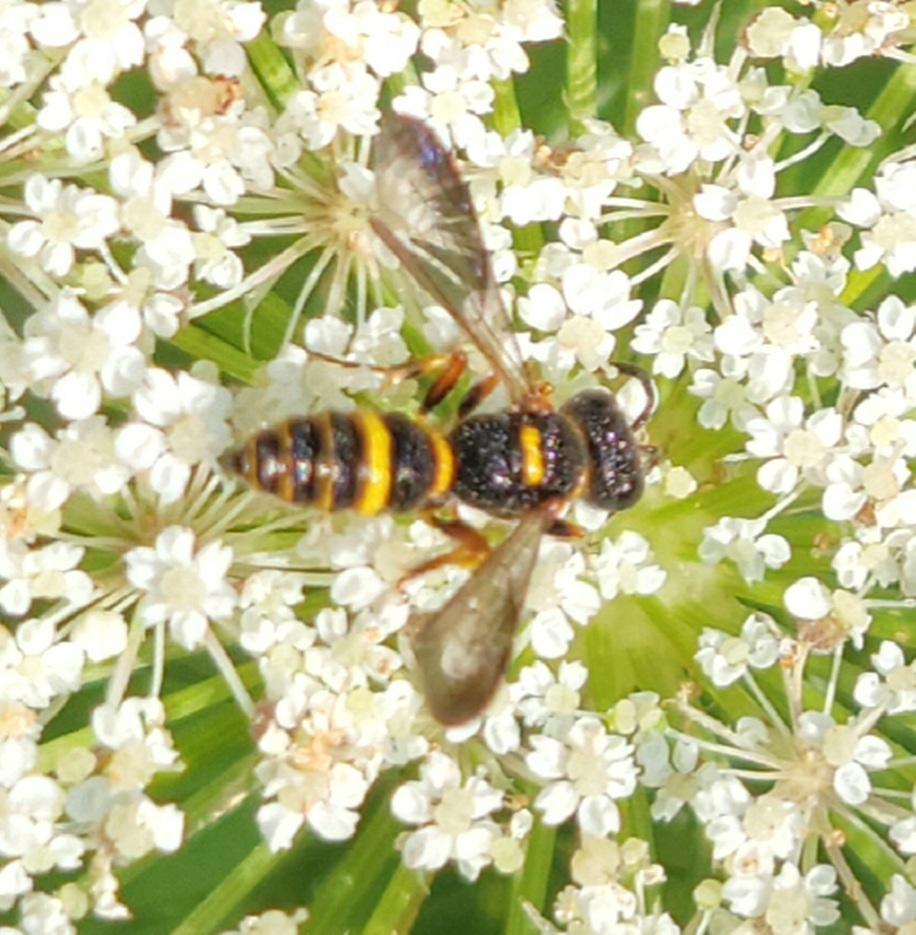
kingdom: Animalia
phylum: Arthropoda
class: Insecta
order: Hymenoptera
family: Crabronidae
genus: Cerceris
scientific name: Cerceris insolita
